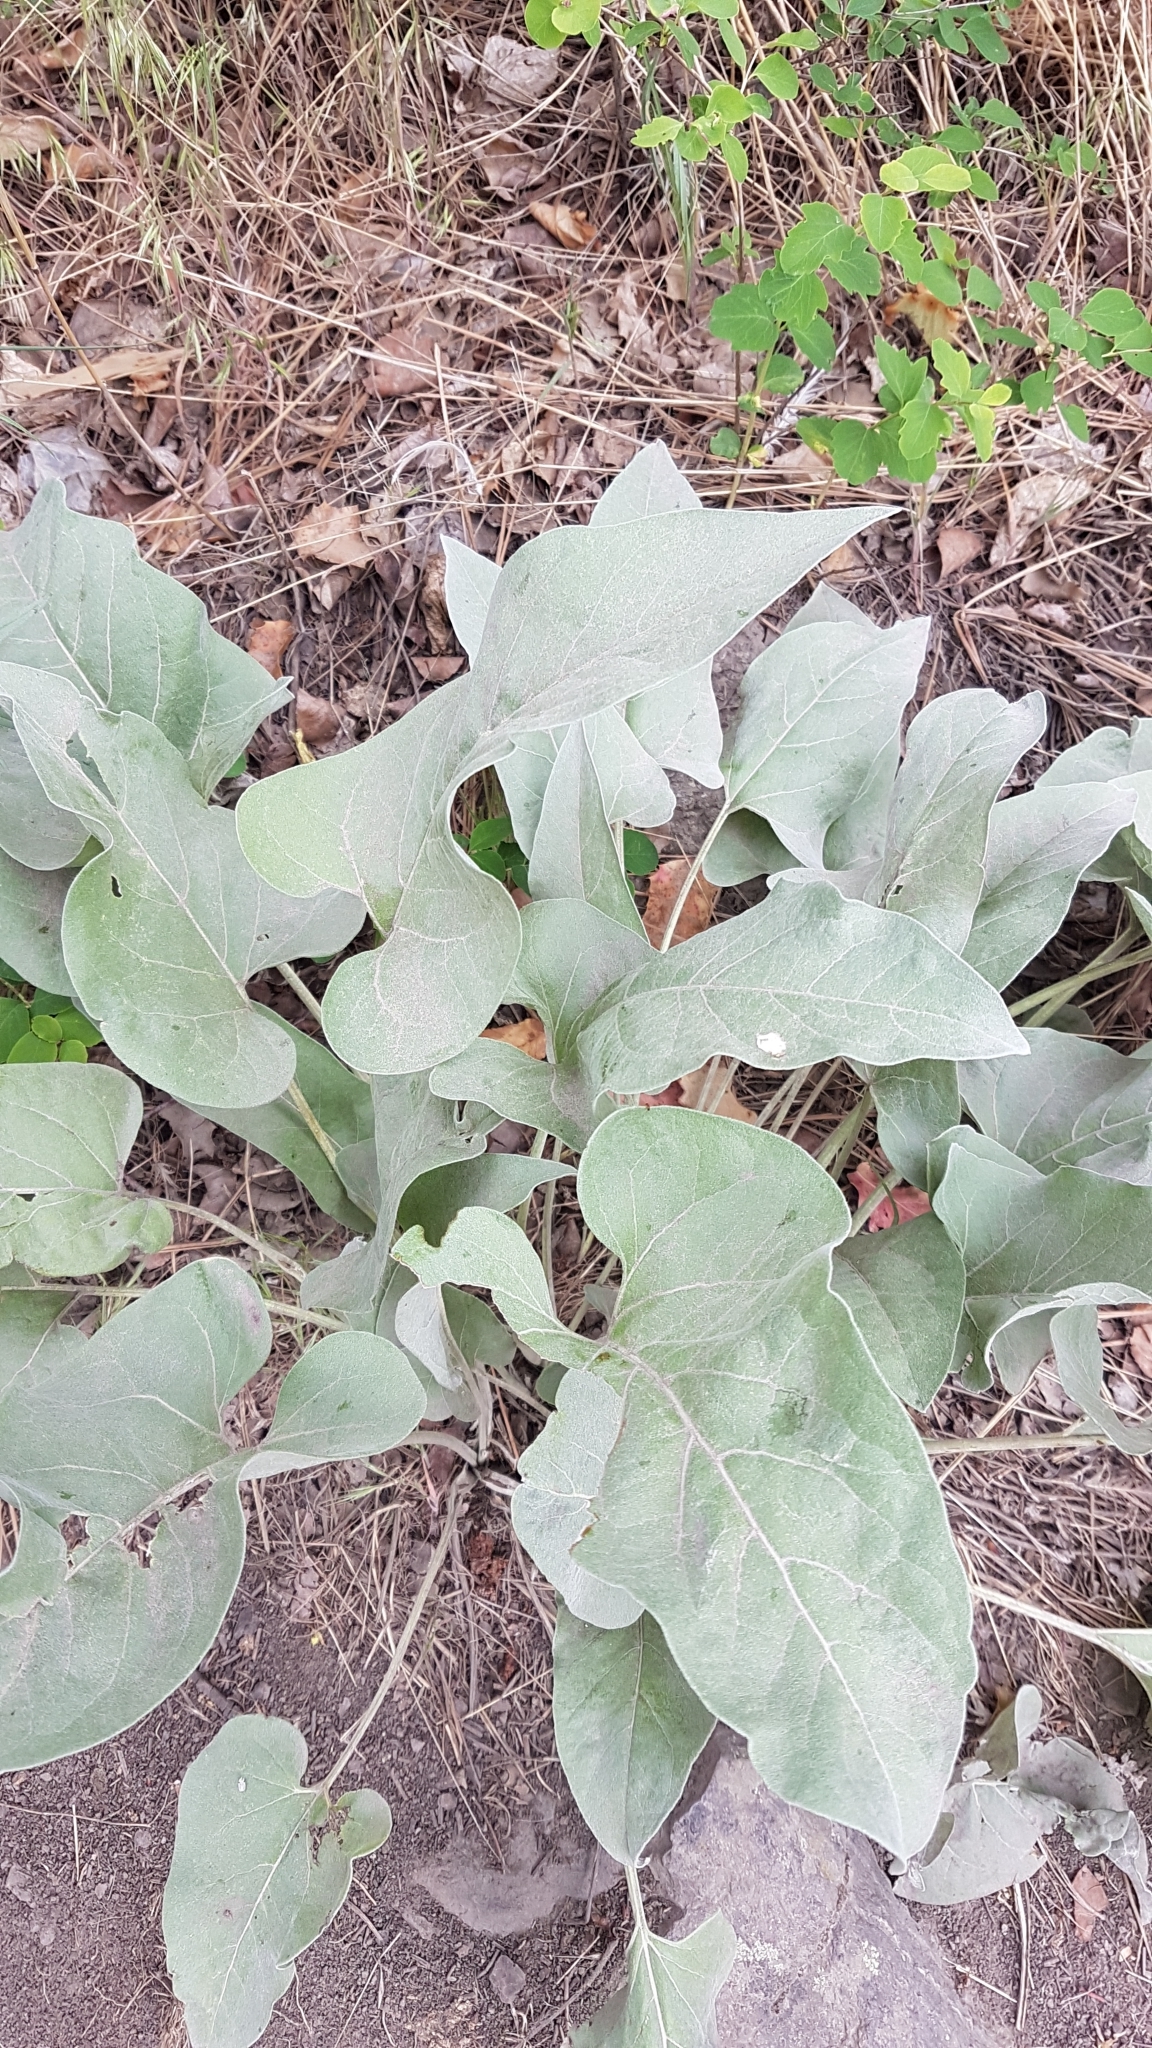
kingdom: Plantae
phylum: Tracheophyta
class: Magnoliopsida
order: Asterales
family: Asteraceae
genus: Wyethia
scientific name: Wyethia sagittata
